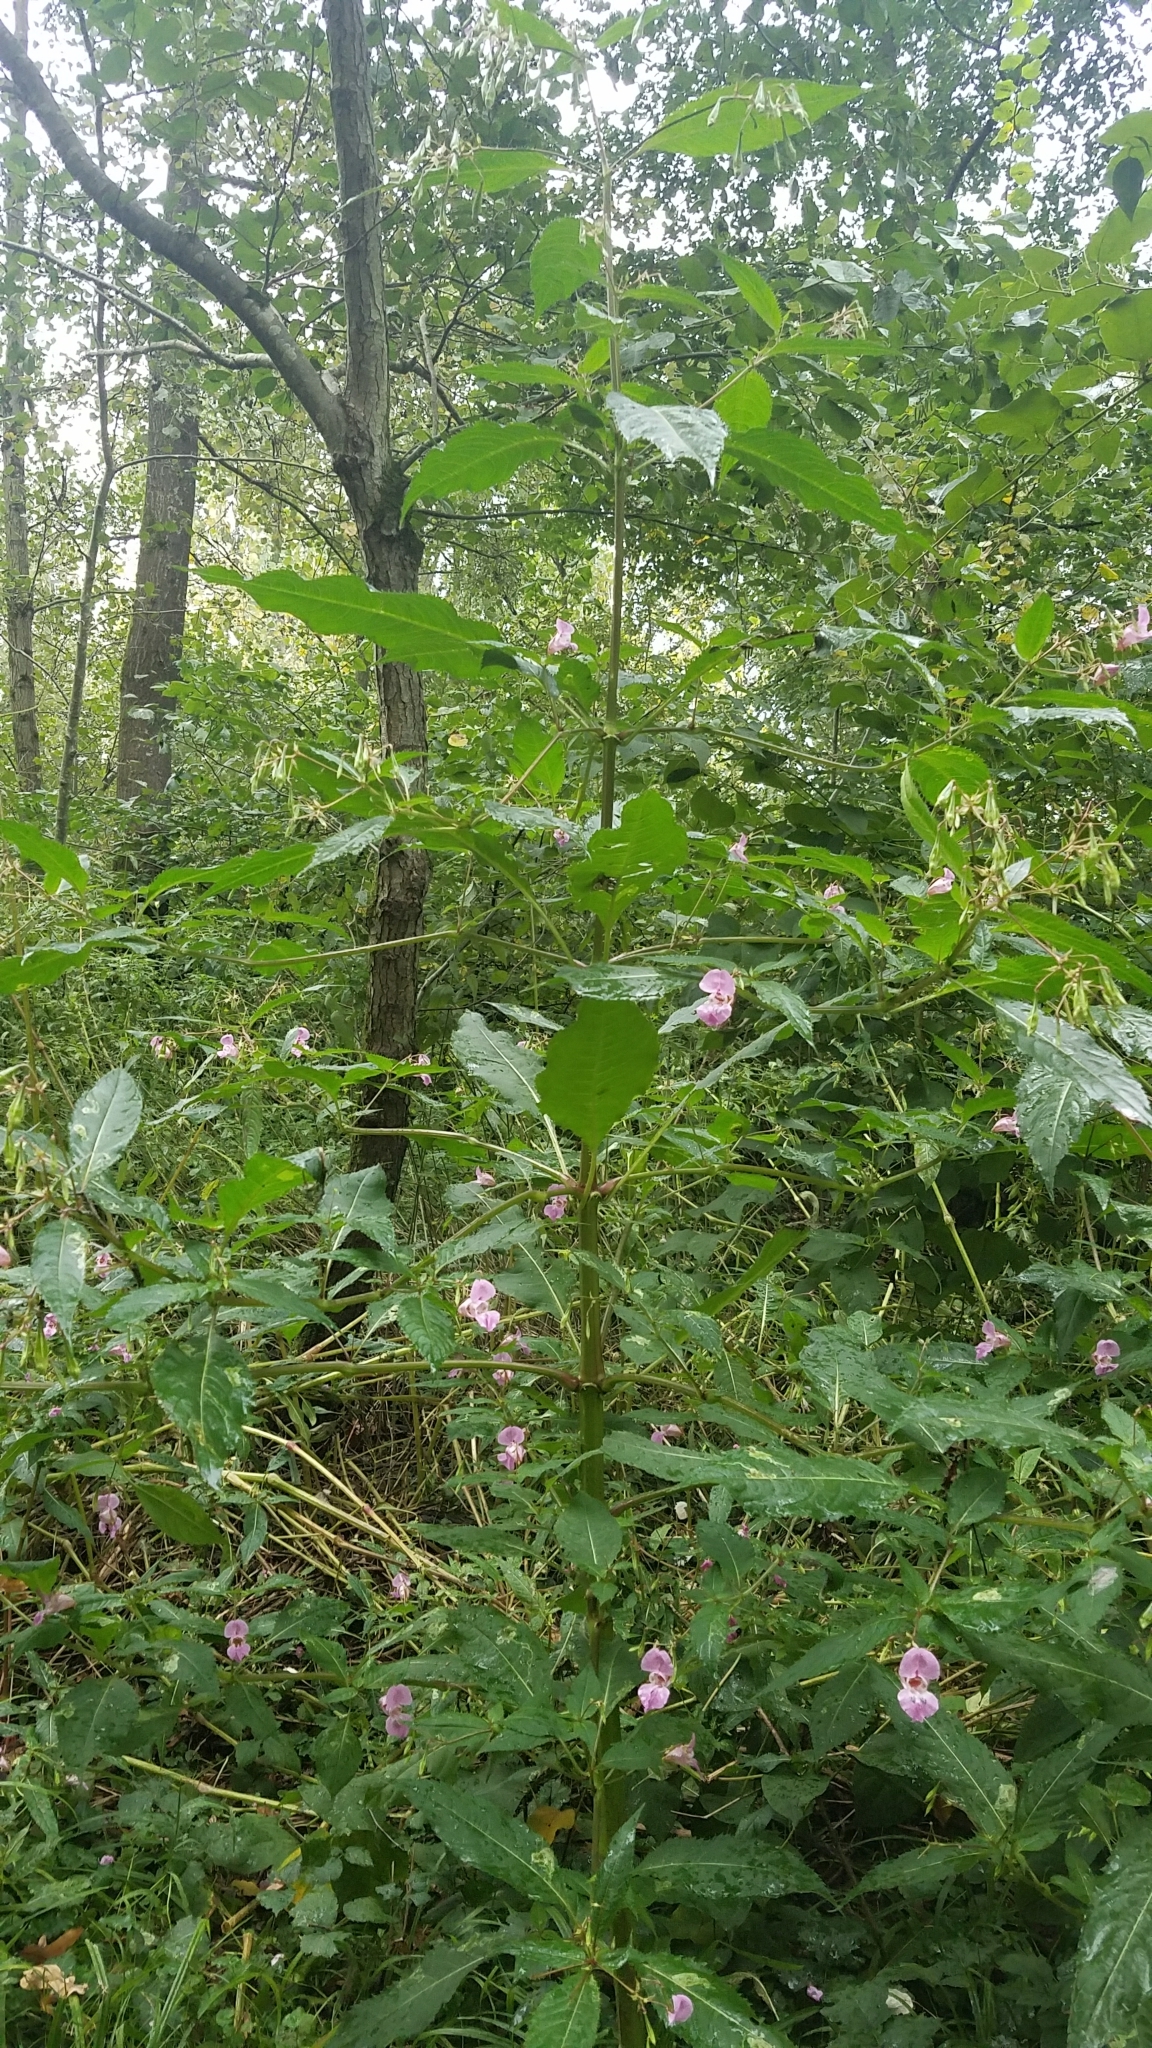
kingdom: Plantae
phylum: Tracheophyta
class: Magnoliopsida
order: Ericales
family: Balsaminaceae
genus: Impatiens
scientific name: Impatiens glandulifera
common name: Himalayan balsam
